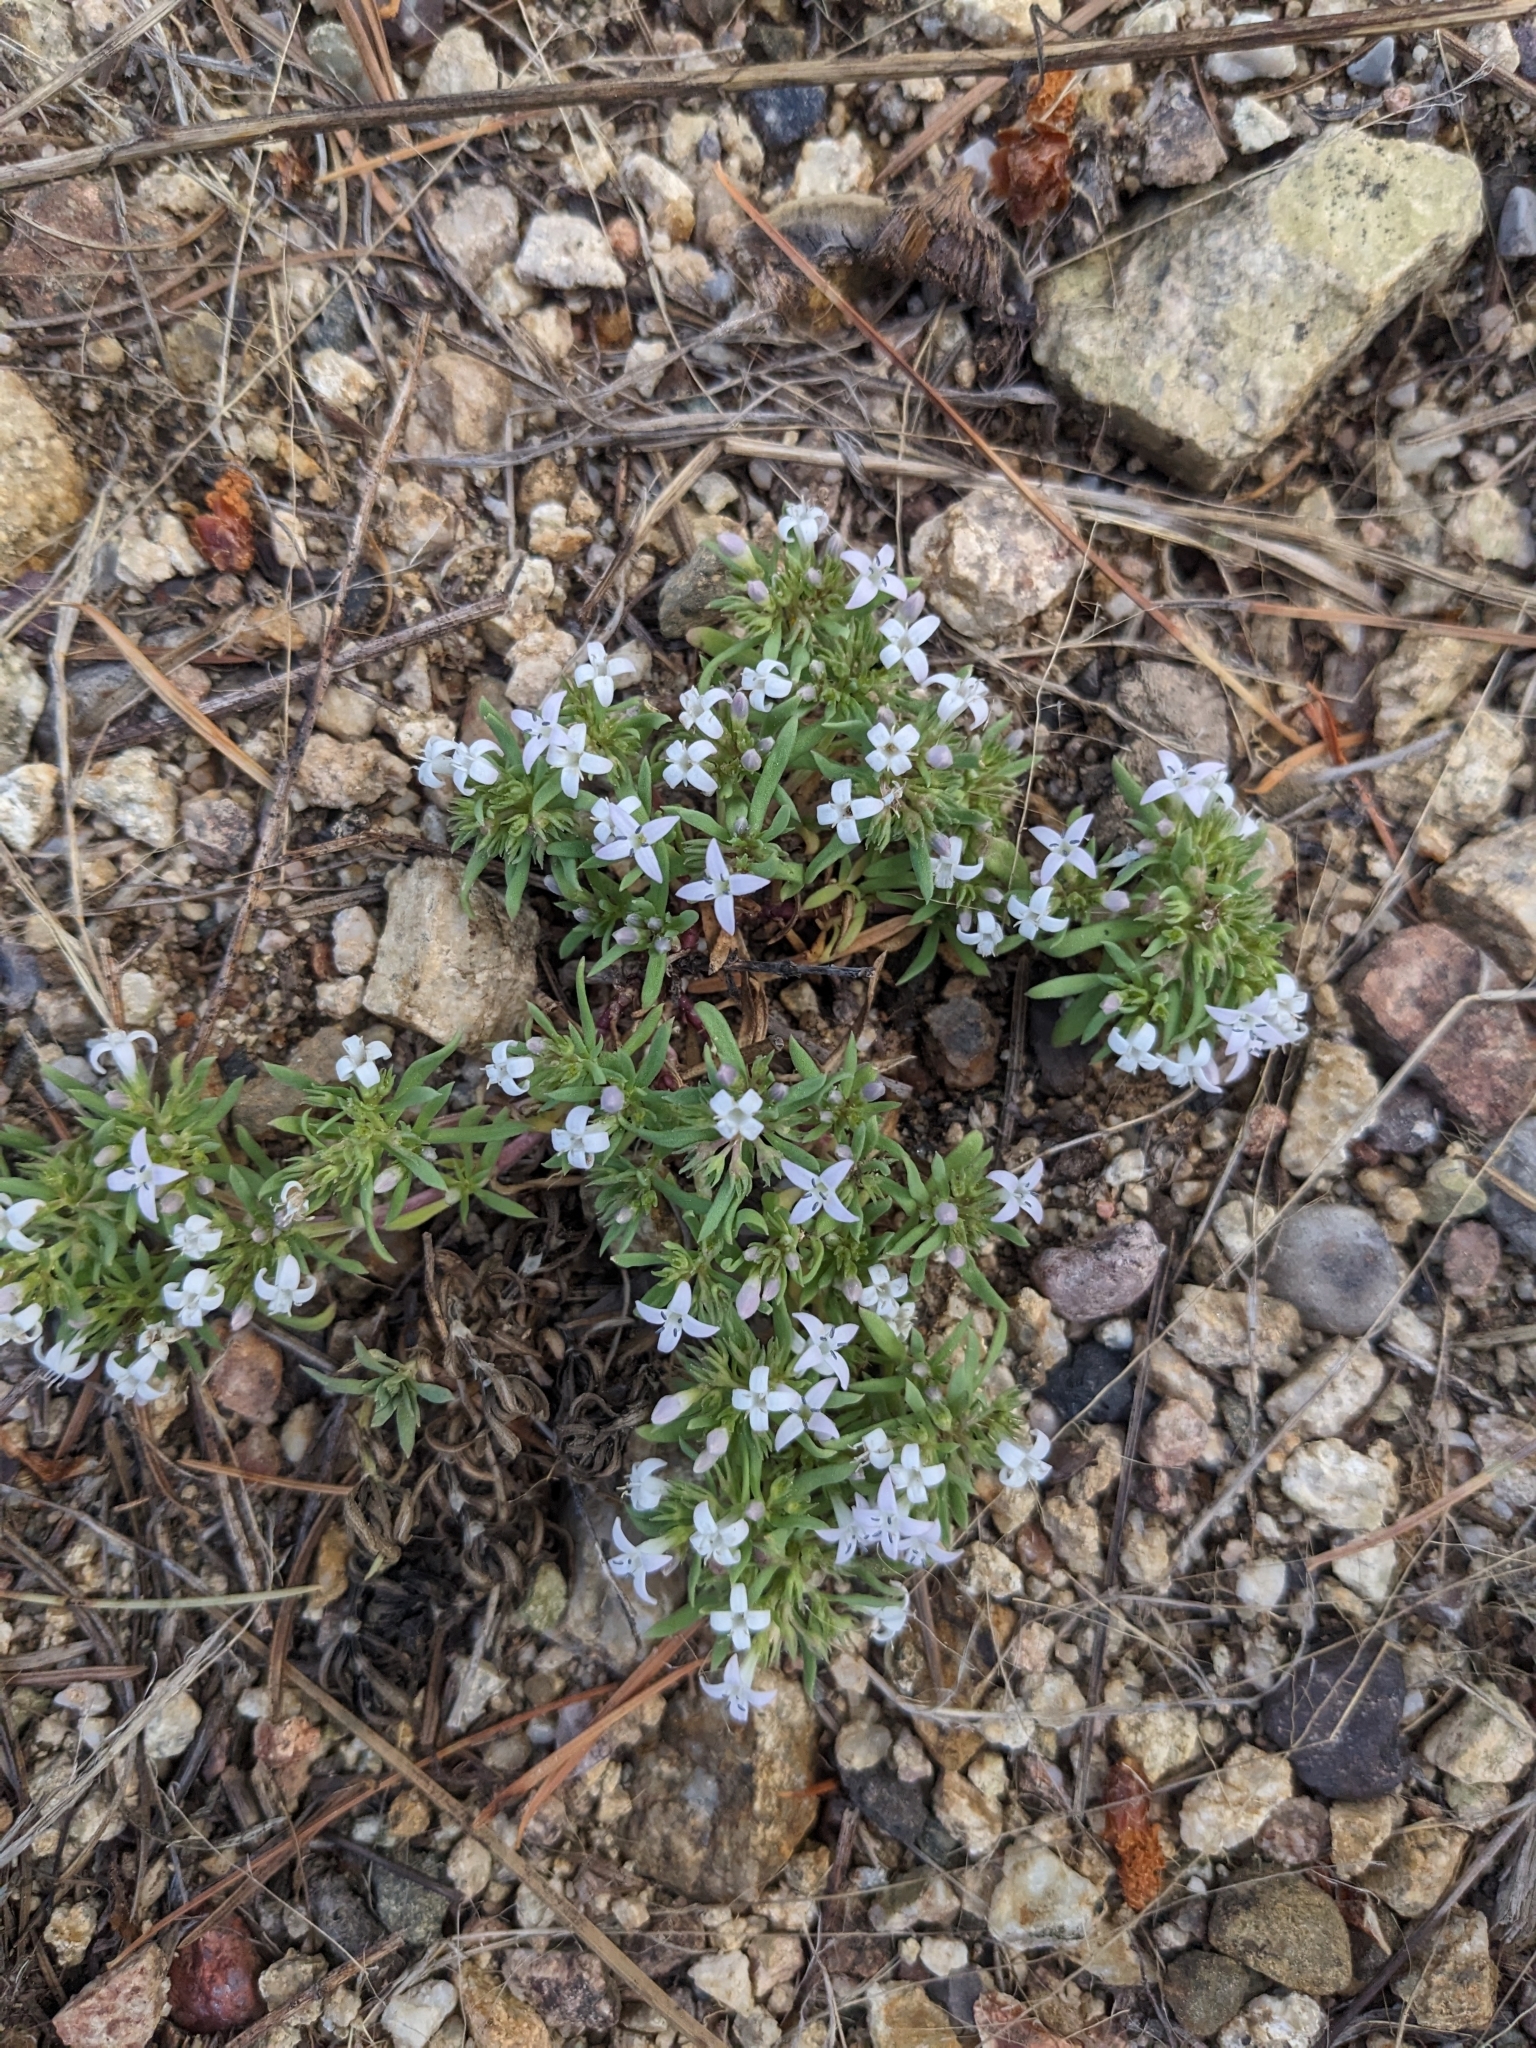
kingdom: Plantae
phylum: Tracheophyta
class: Magnoliopsida
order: Gentianales
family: Rubiaceae
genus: Houstonia
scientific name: Houstonia wrightii
